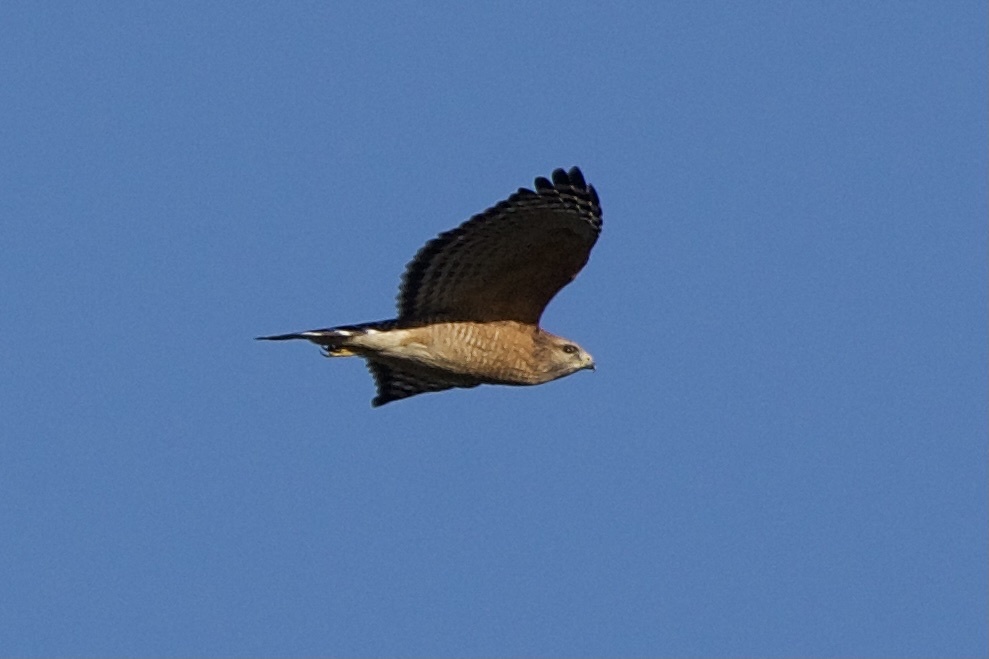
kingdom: Animalia
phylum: Chordata
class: Aves
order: Accipitriformes
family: Accipitridae
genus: Buteo
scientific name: Buteo lineatus
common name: Red-shouldered hawk
